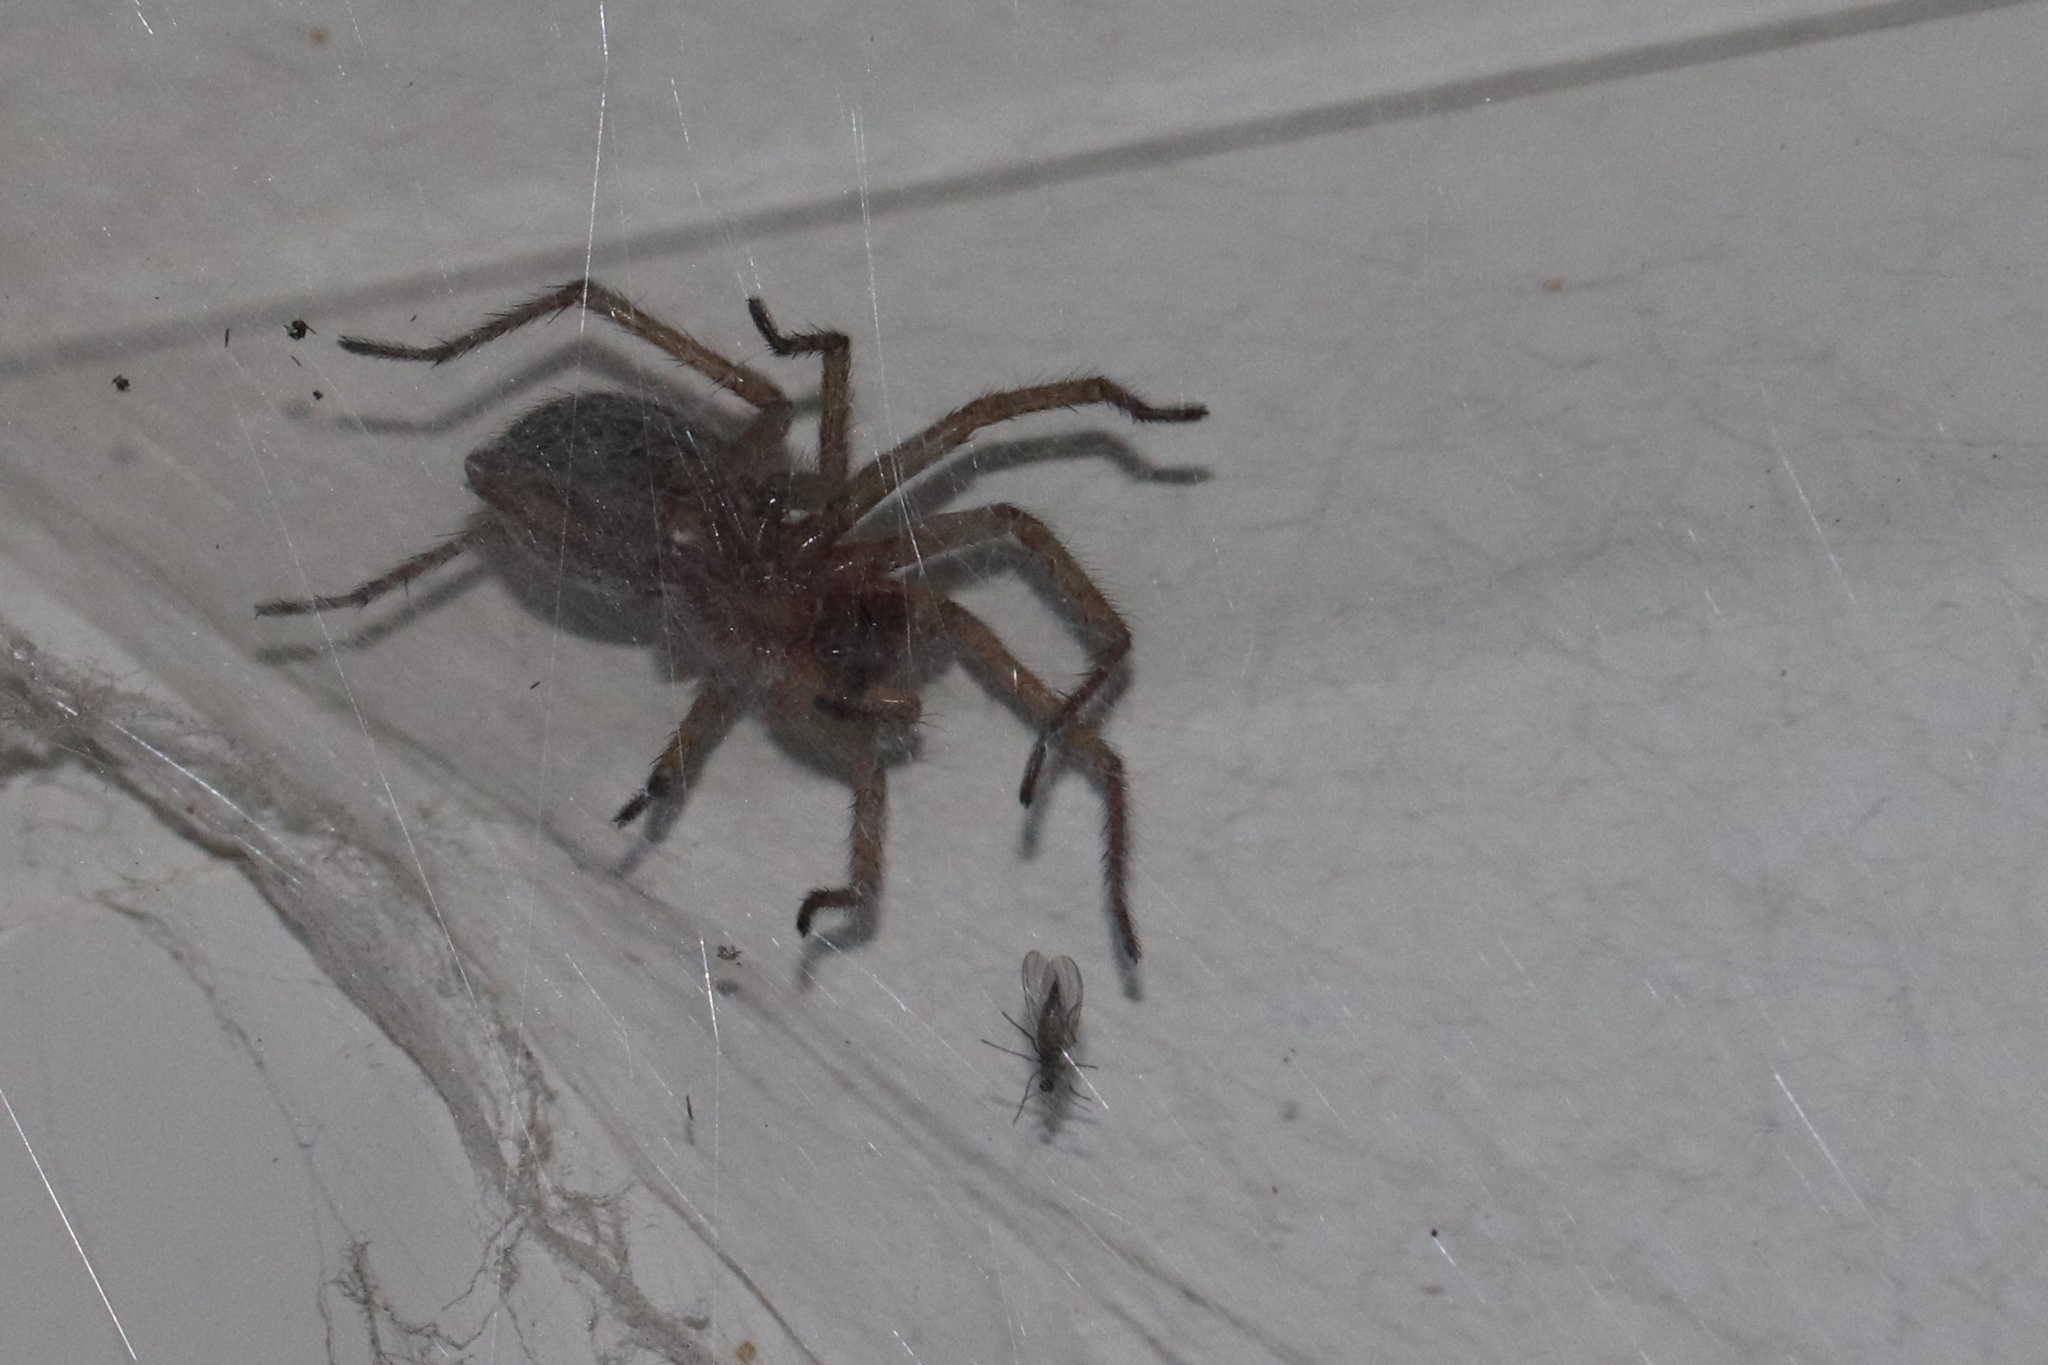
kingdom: Animalia
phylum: Arthropoda
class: Arachnida
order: Araneae
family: Agelenidae
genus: Eratigena
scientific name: Eratigena agrestis
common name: Hobo spider
